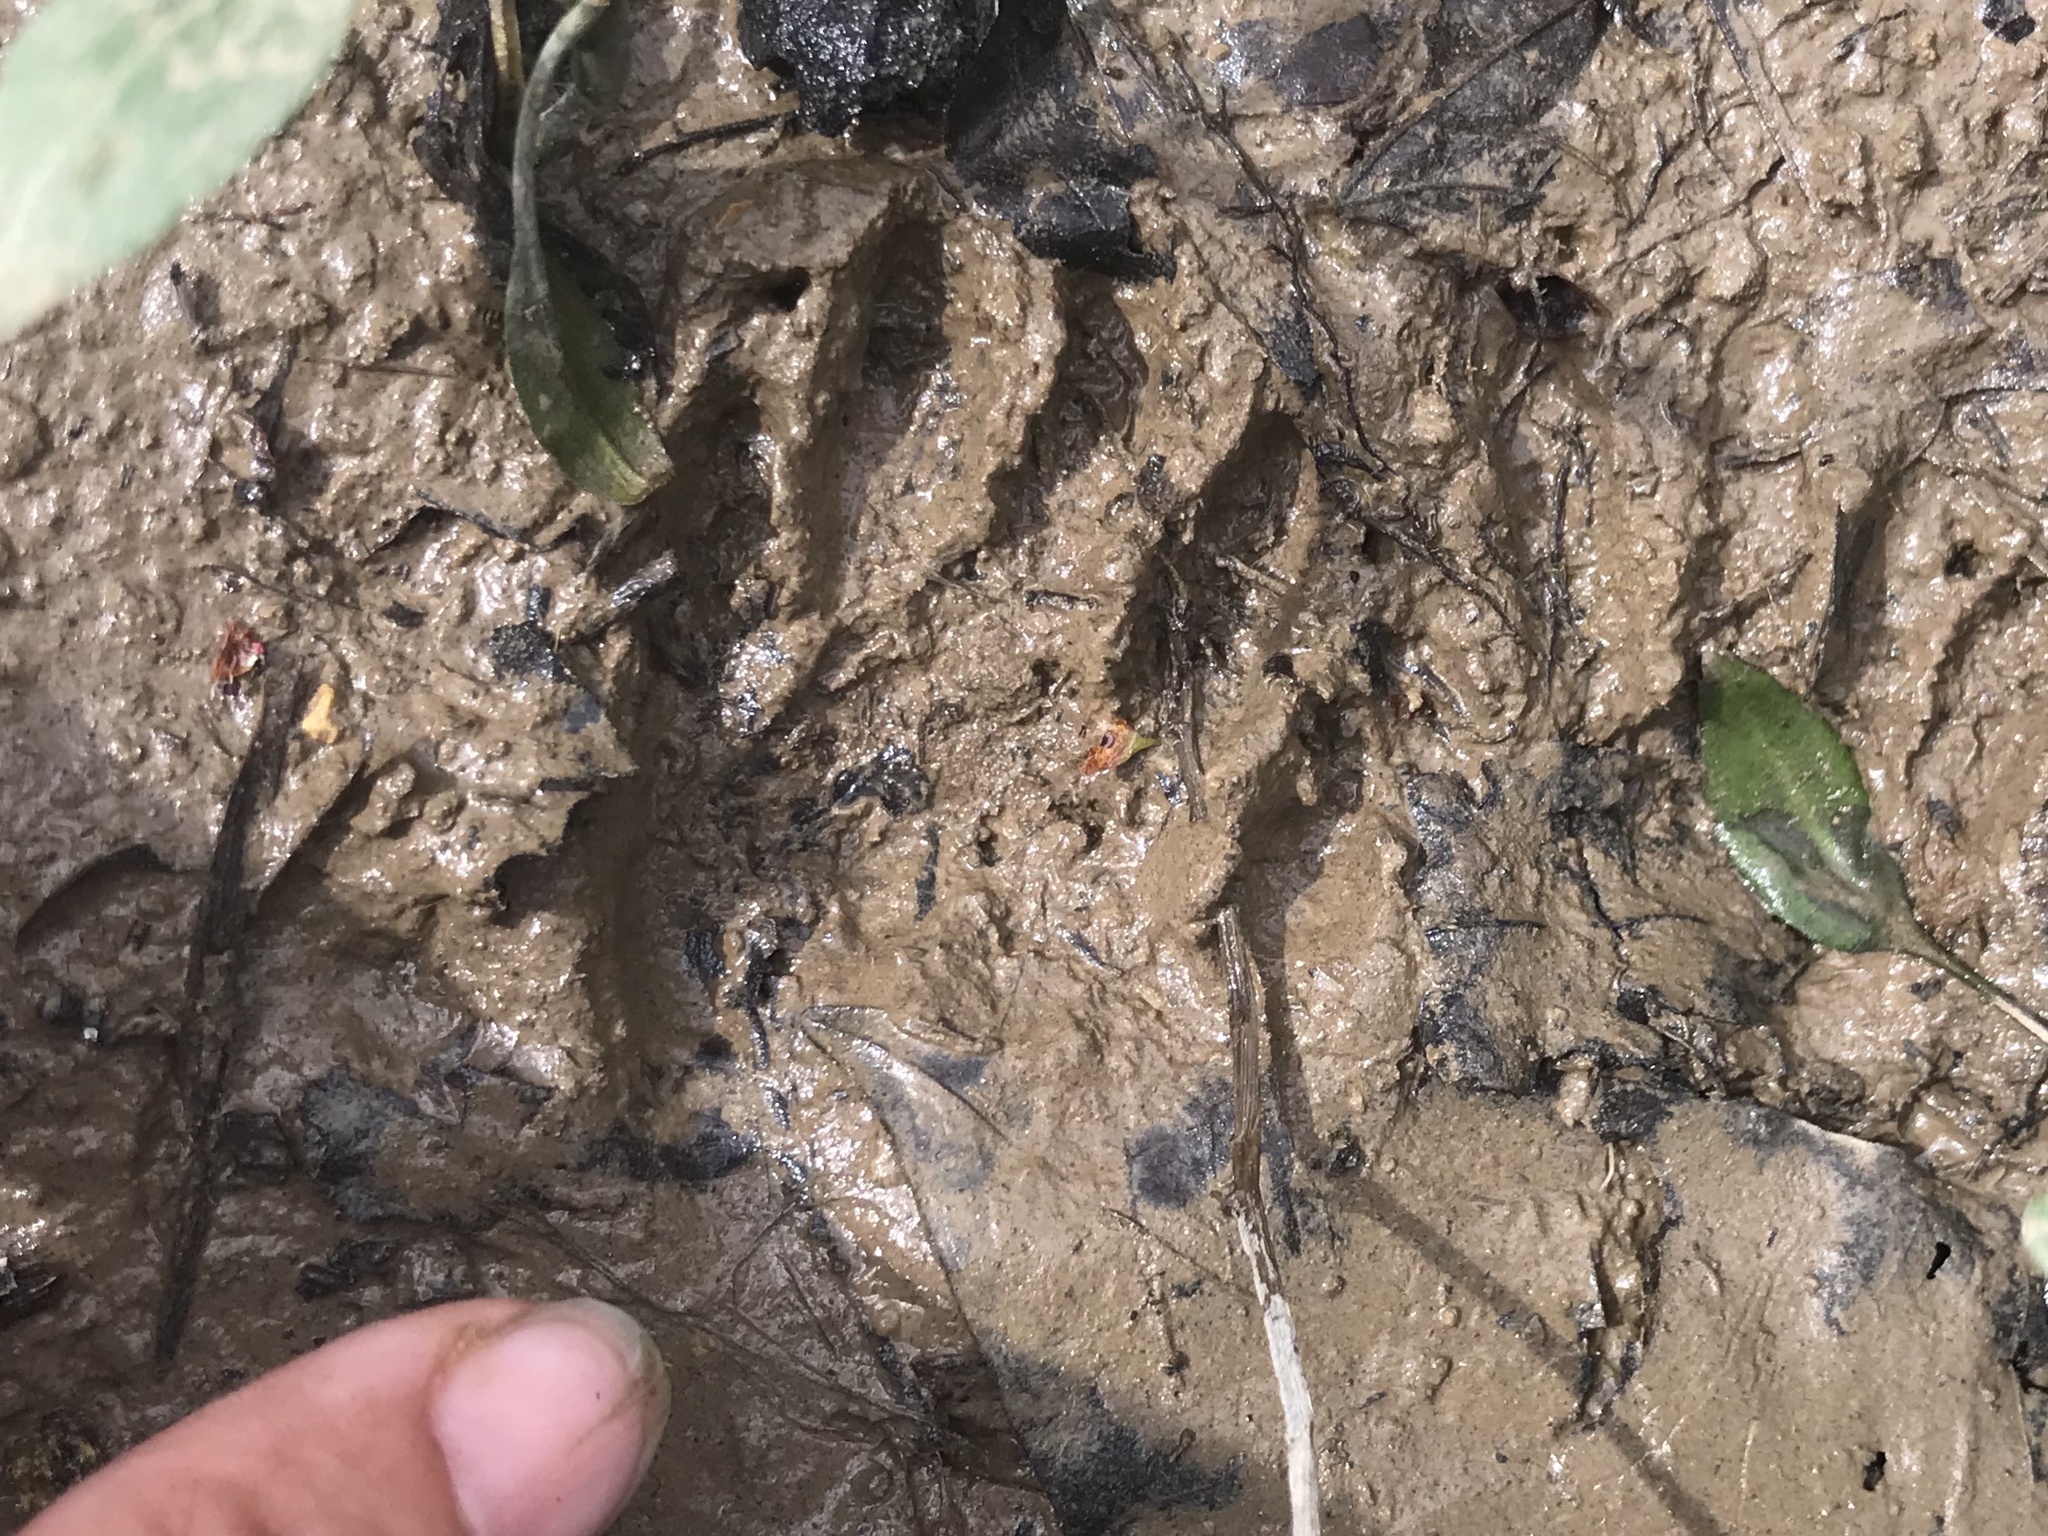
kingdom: Animalia
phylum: Chordata
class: Mammalia
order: Carnivora
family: Procyonidae
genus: Procyon
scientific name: Procyon lotor
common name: Raccoon
